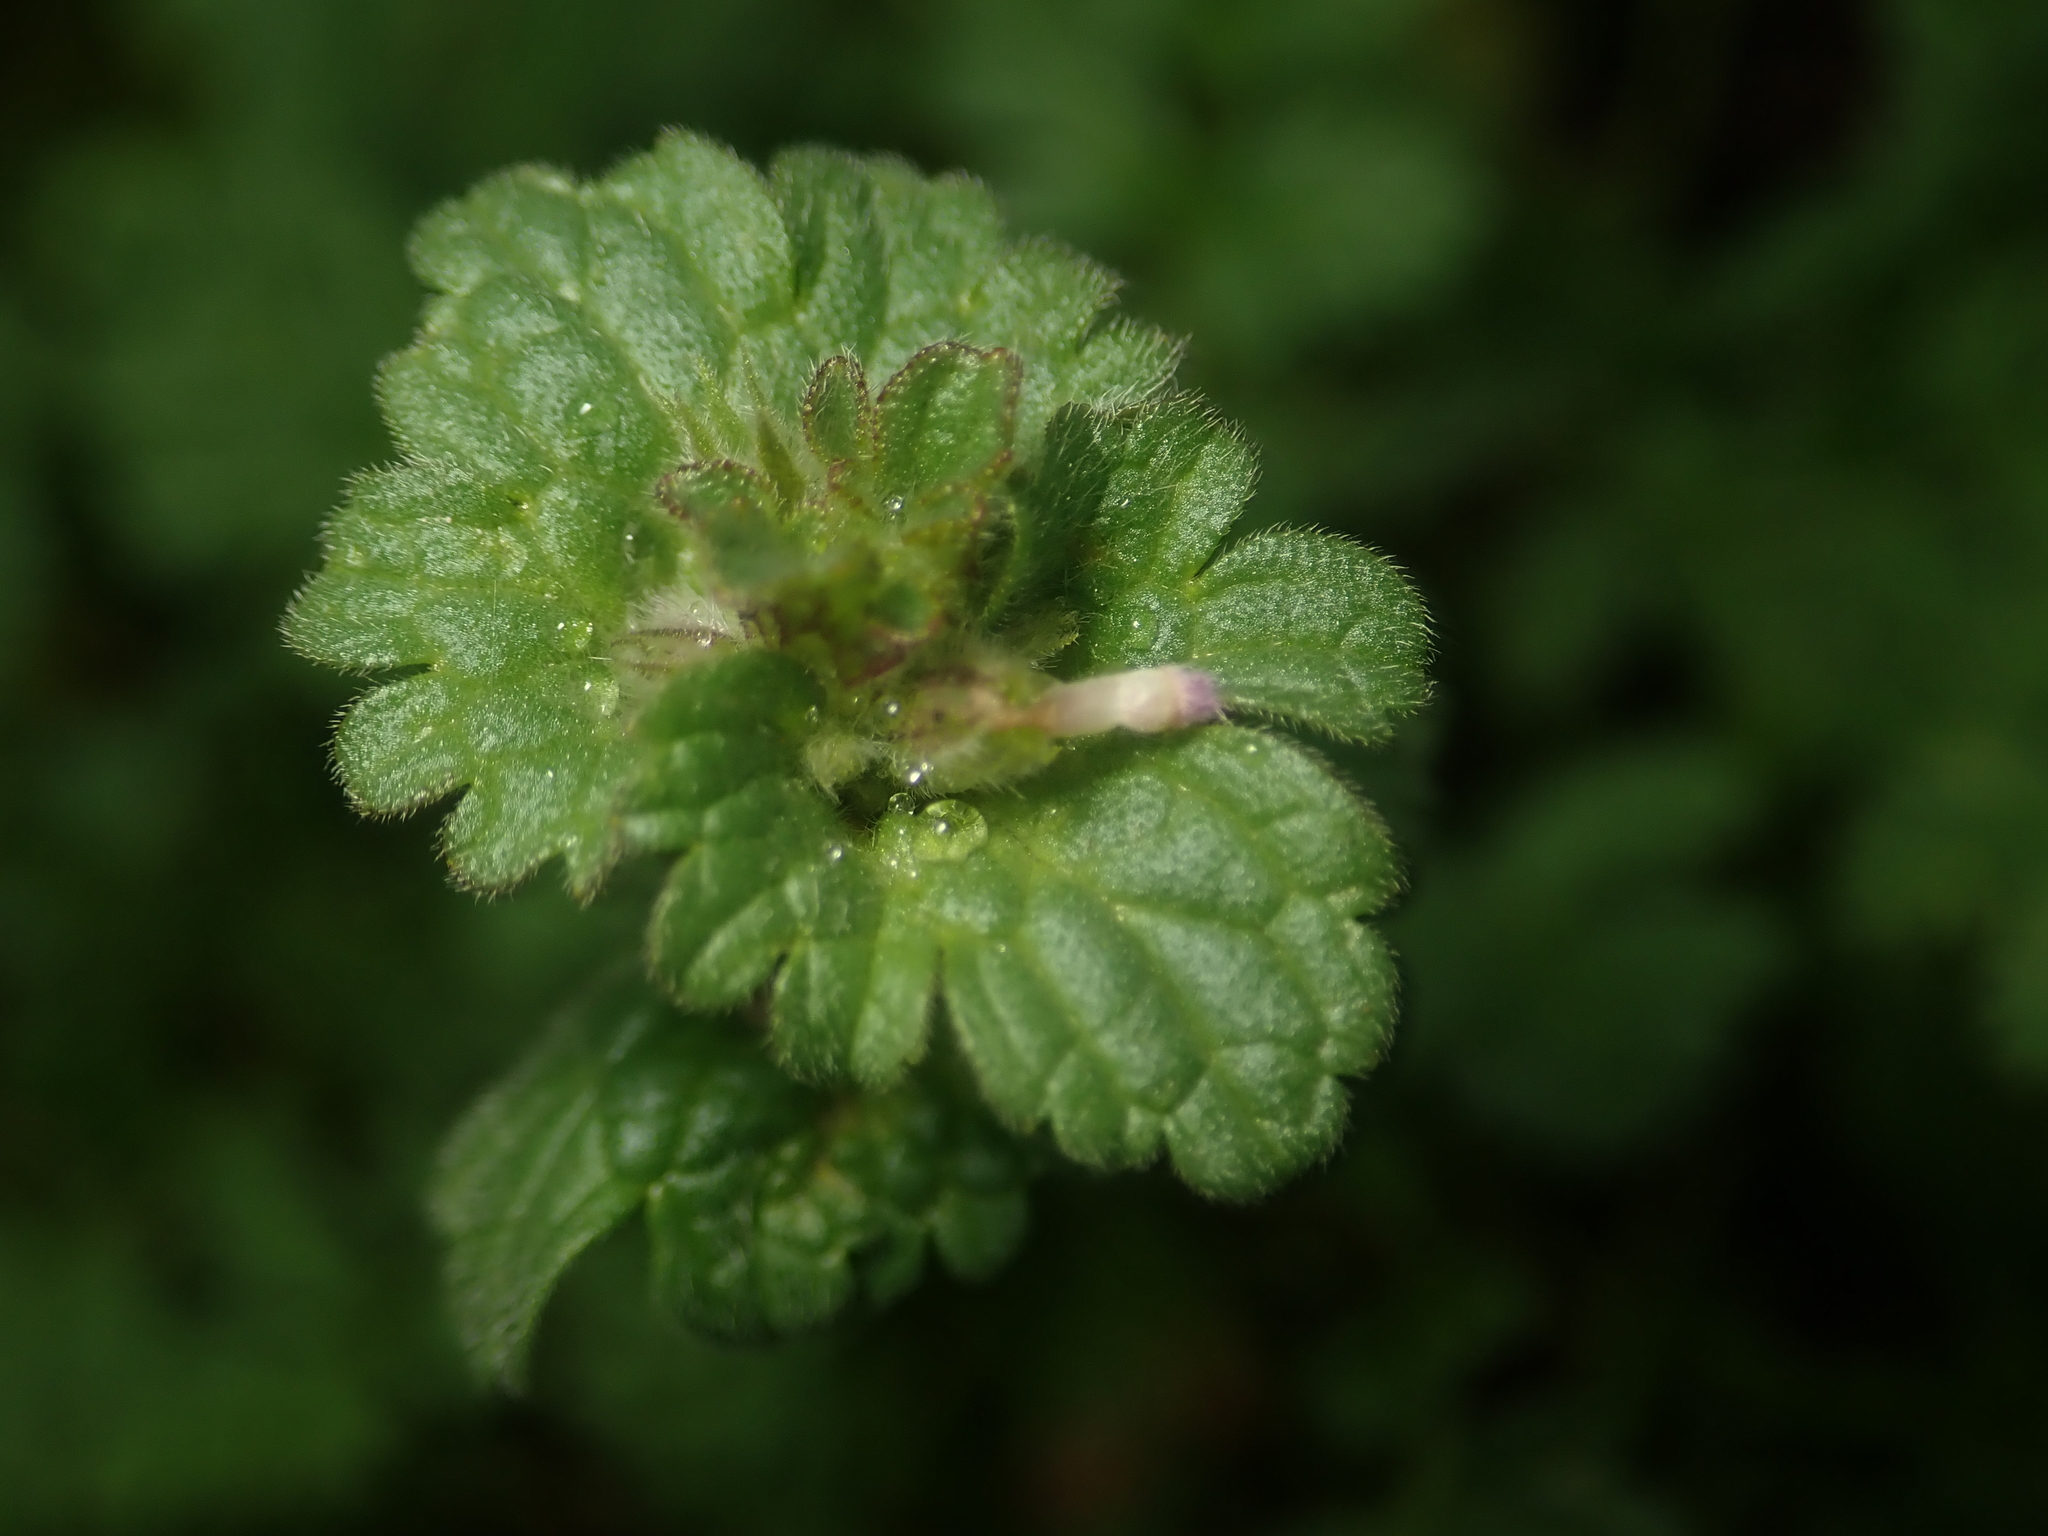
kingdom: Plantae
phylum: Tracheophyta
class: Magnoliopsida
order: Lamiales
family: Lamiaceae
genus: Lamium
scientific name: Lamium amplexicaule
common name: Henbit dead-nettle
